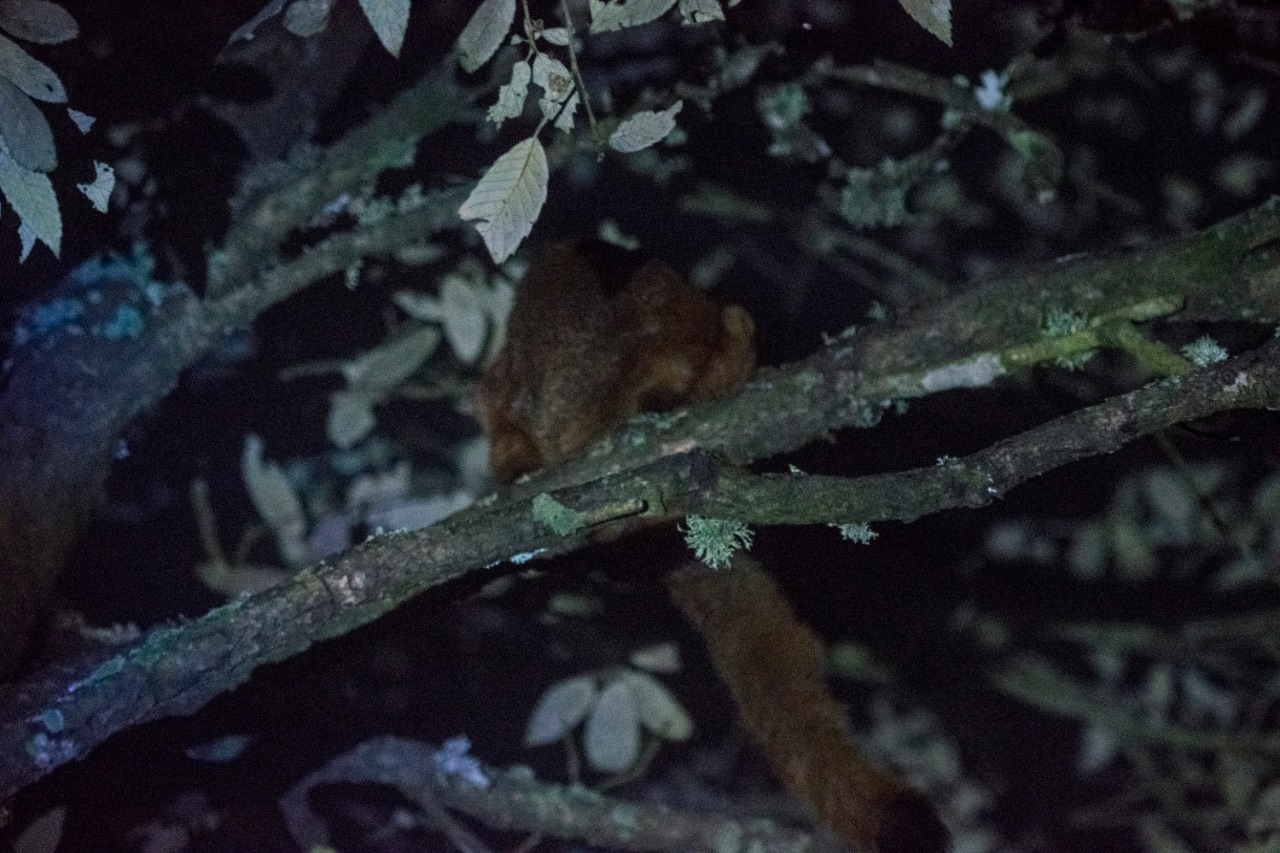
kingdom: Animalia
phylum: Chordata
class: Mammalia
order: Rodentia
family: Sciuridae
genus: Petaurista
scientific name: Petaurista petaurista
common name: Red giant flying squirrel
